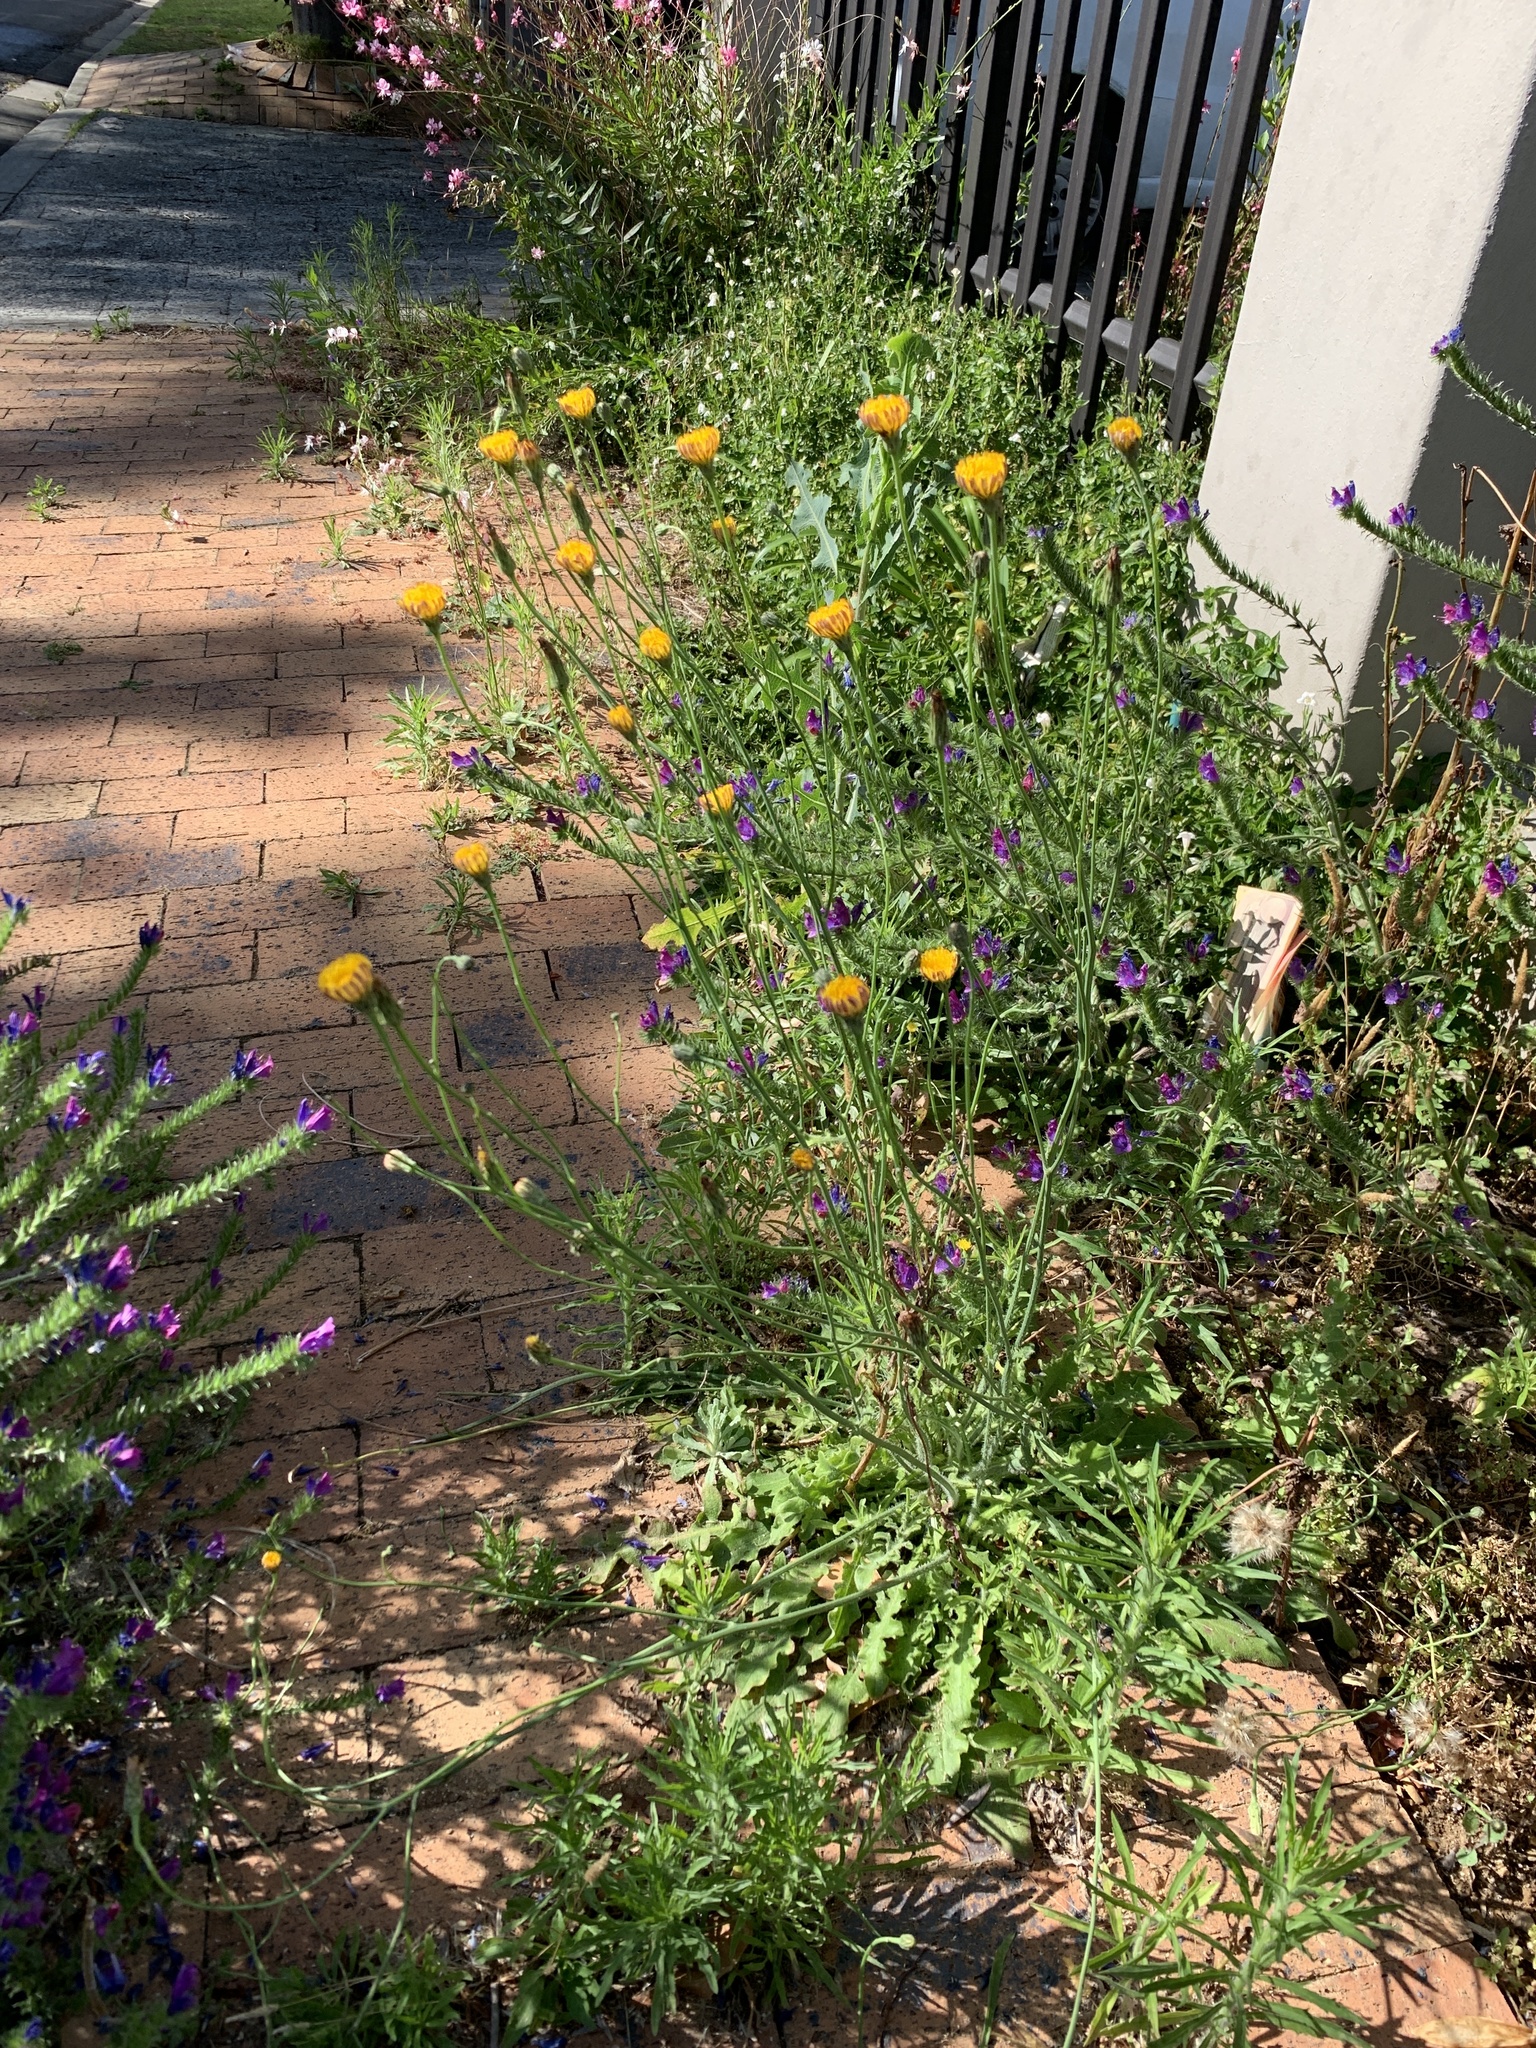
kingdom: Plantae
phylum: Tracheophyta
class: Magnoliopsida
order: Asterales
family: Asteraceae
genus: Hypochaeris
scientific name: Hypochaeris radicata
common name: Flatweed
